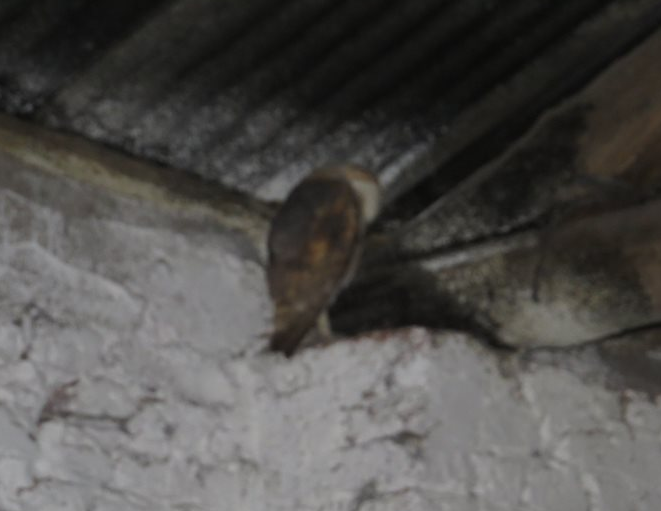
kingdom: Animalia
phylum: Chordata
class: Aves
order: Strigiformes
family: Tytonidae
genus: Tyto
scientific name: Tyto alba
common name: Barn owl
